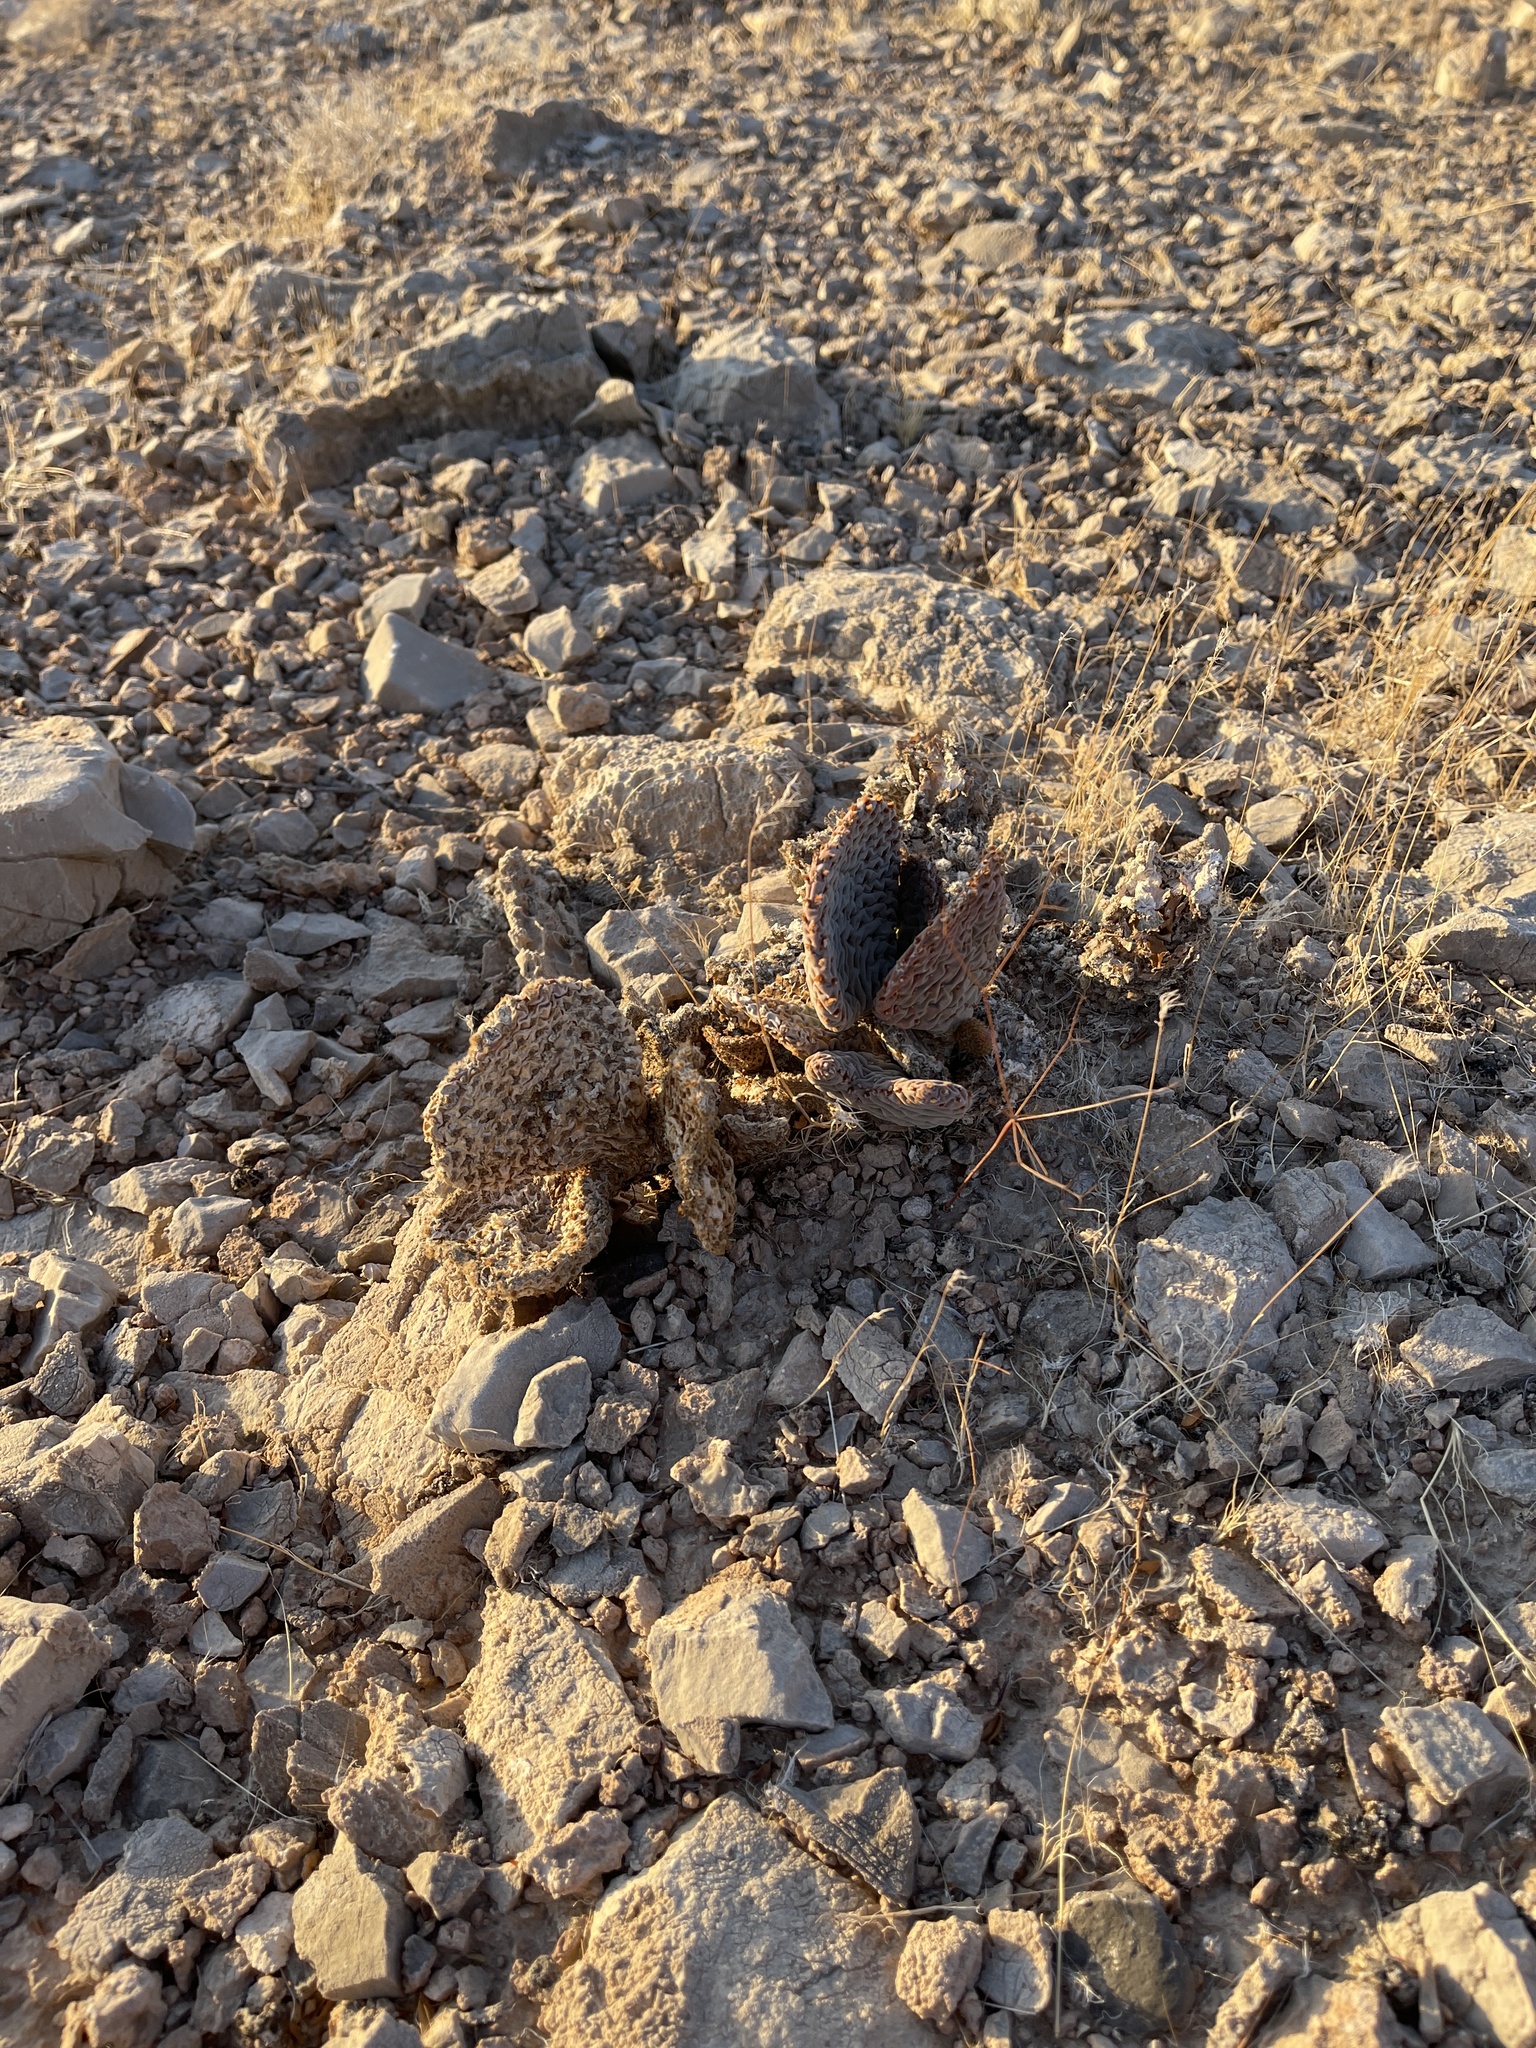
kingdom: Plantae
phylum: Tracheophyta
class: Magnoliopsida
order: Caryophyllales
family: Cactaceae
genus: Opuntia
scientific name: Opuntia basilaris
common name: Beavertail prickly-pear
